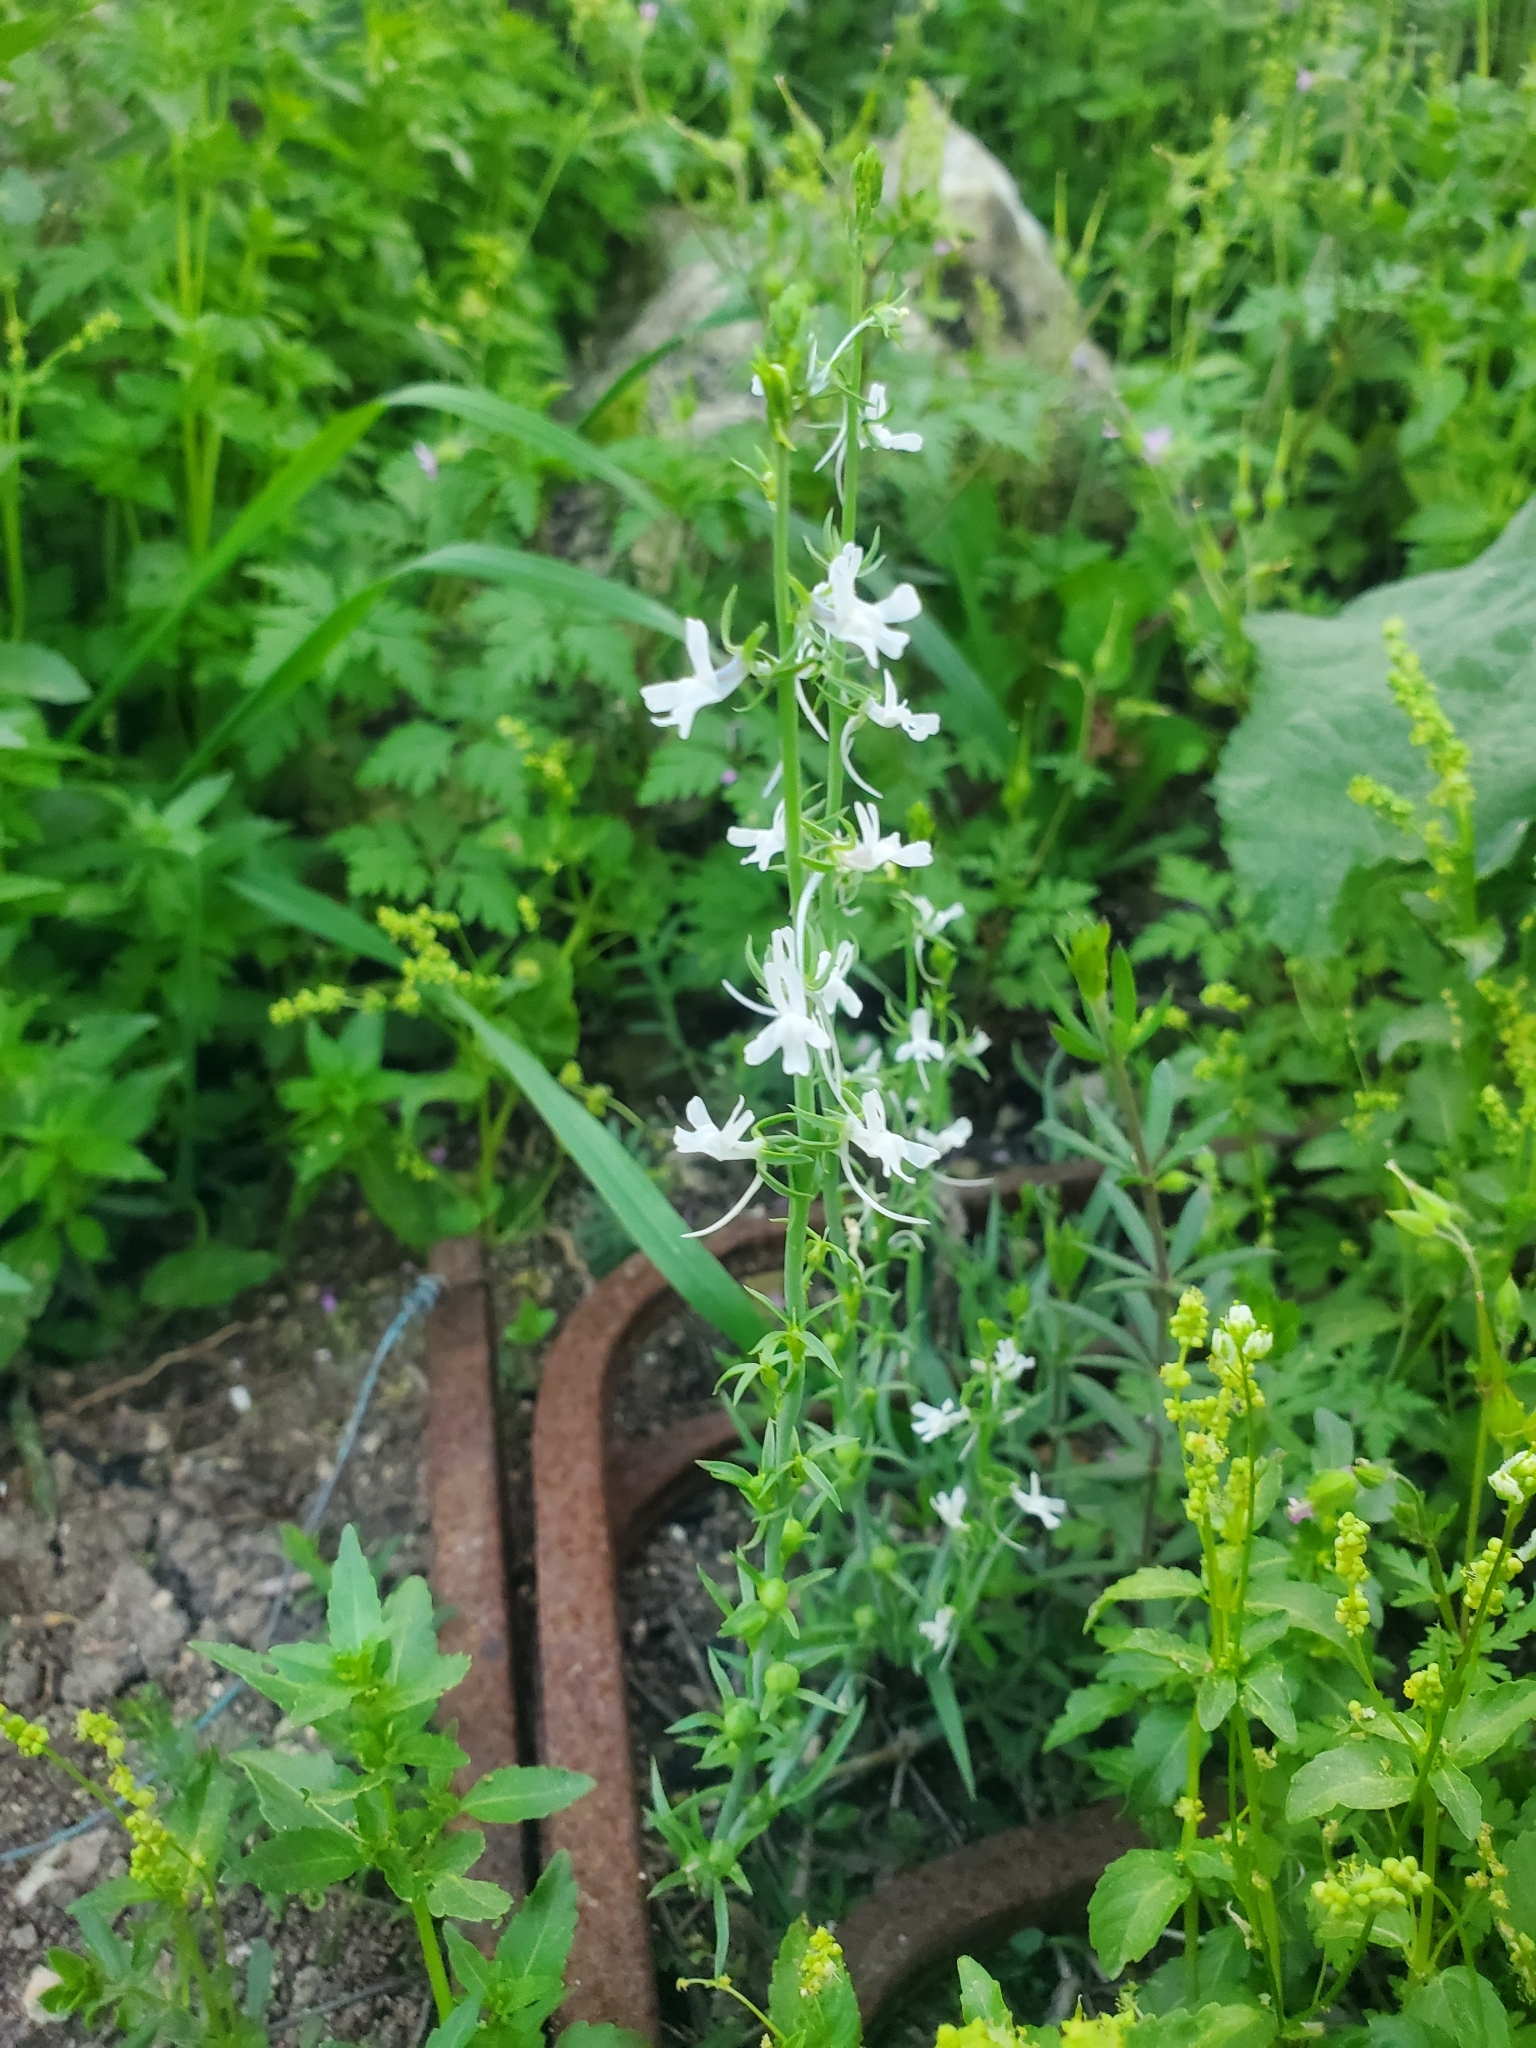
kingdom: Plantae
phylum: Tracheophyta
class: Magnoliopsida
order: Lamiales
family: Plantaginaceae
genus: Linaria
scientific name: Linaria chalepensis
